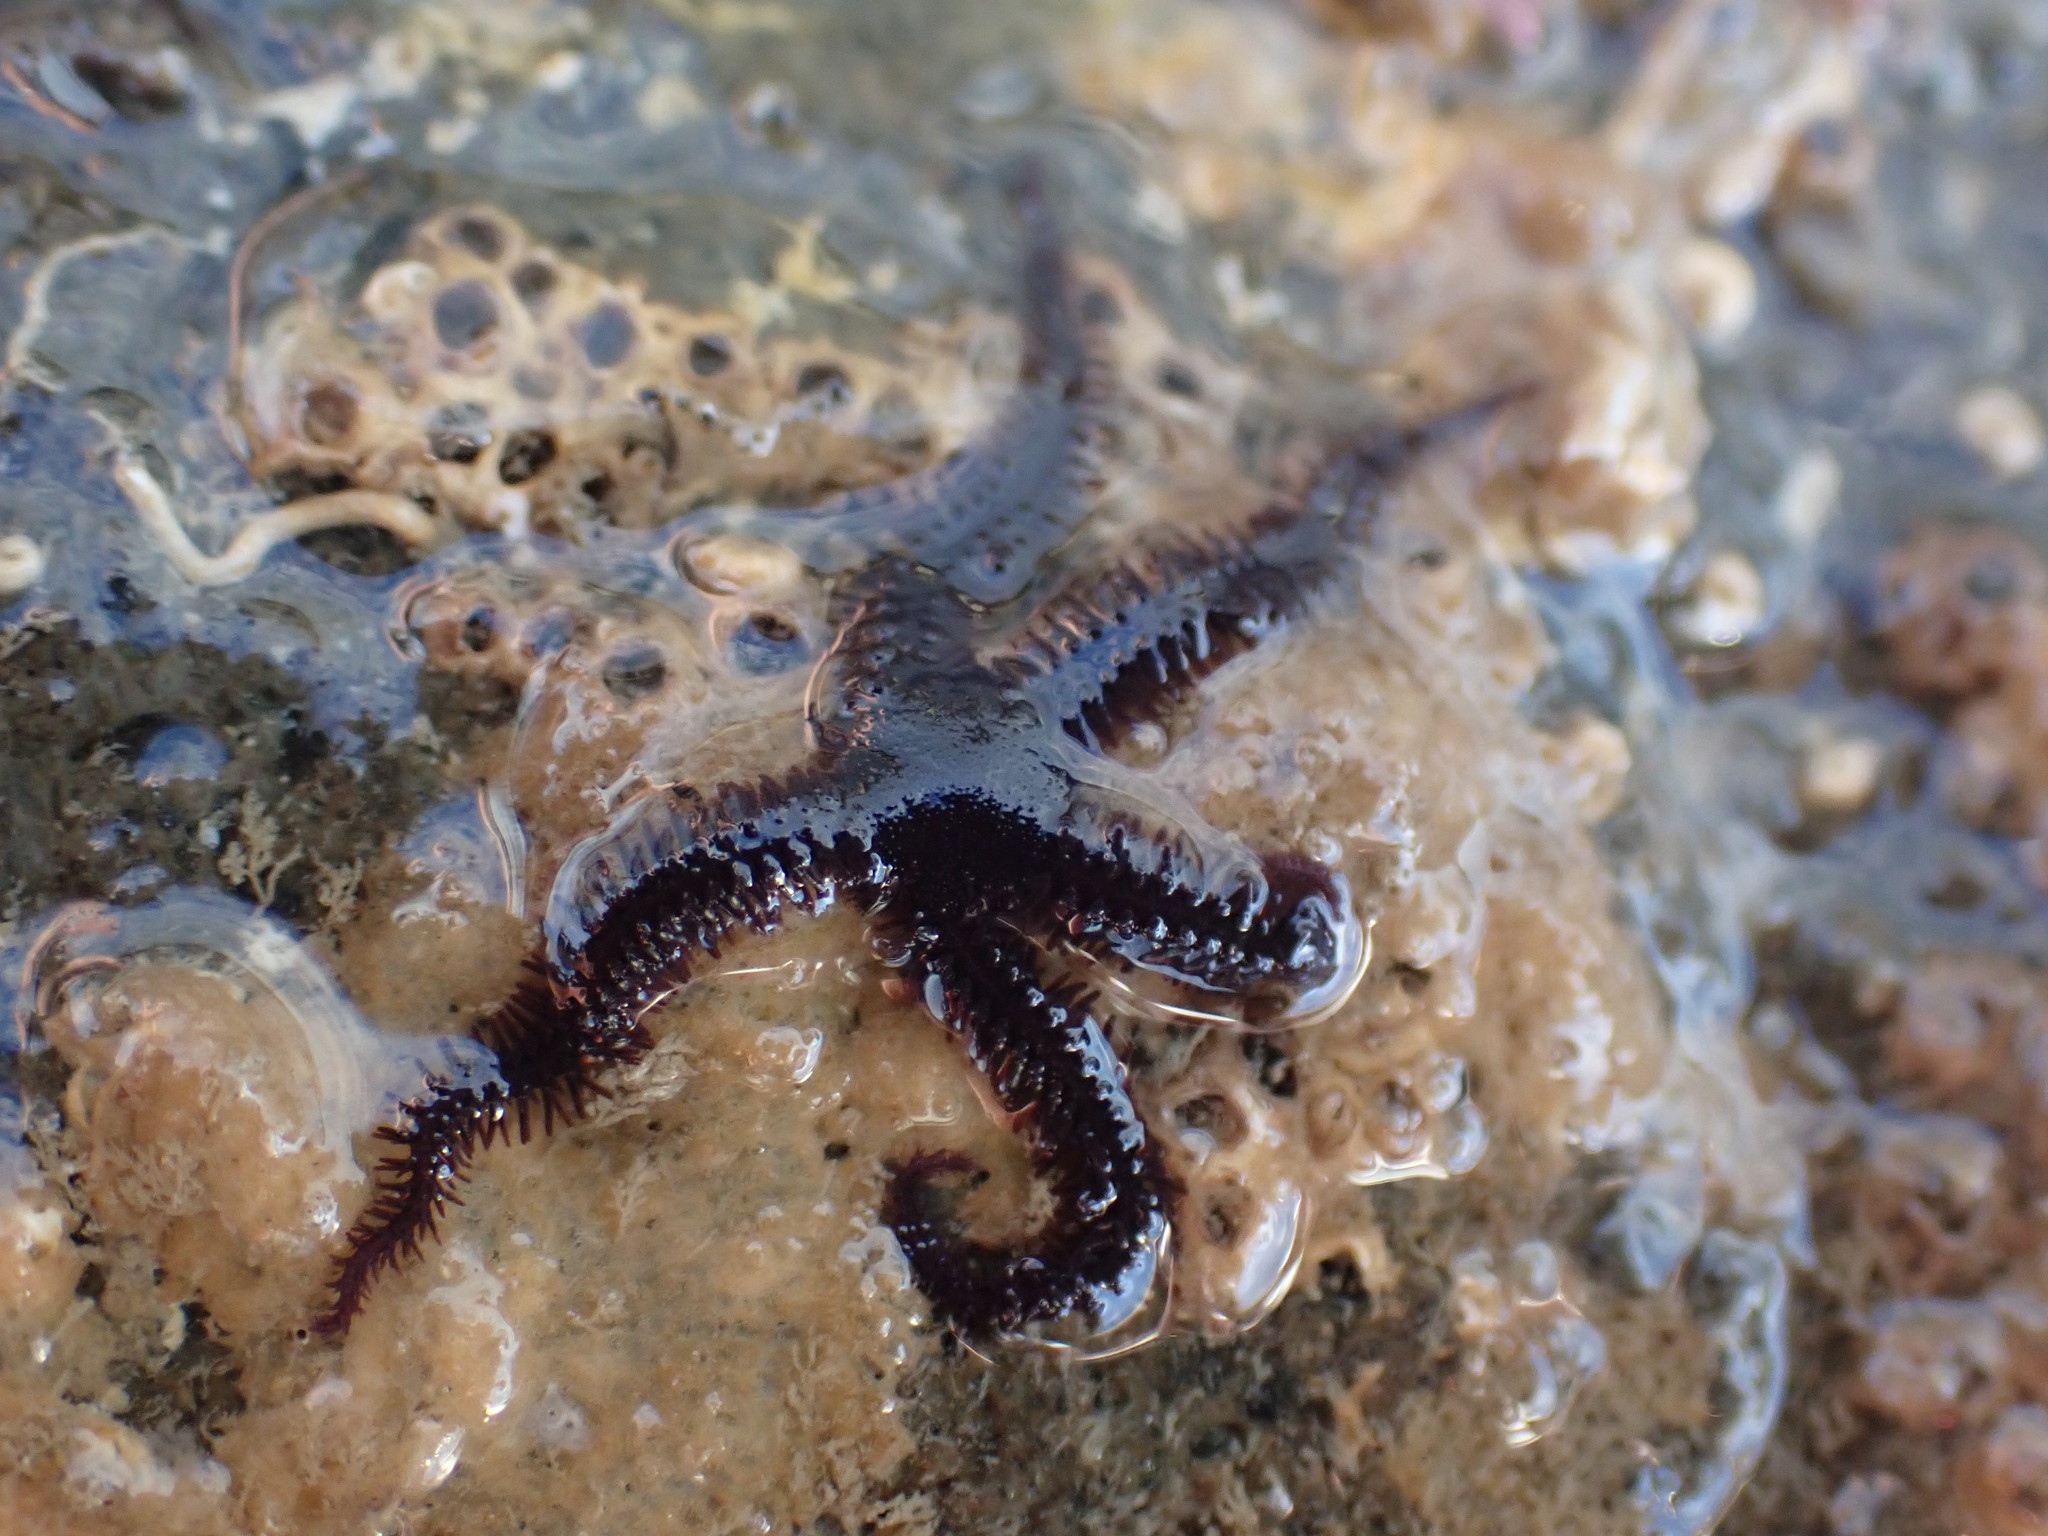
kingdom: Animalia
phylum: Echinodermata
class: Ophiuroidea
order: Ophiacanthida
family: Ophiopteridae
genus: Ophiopteris
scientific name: Ophiopteris antipodum
